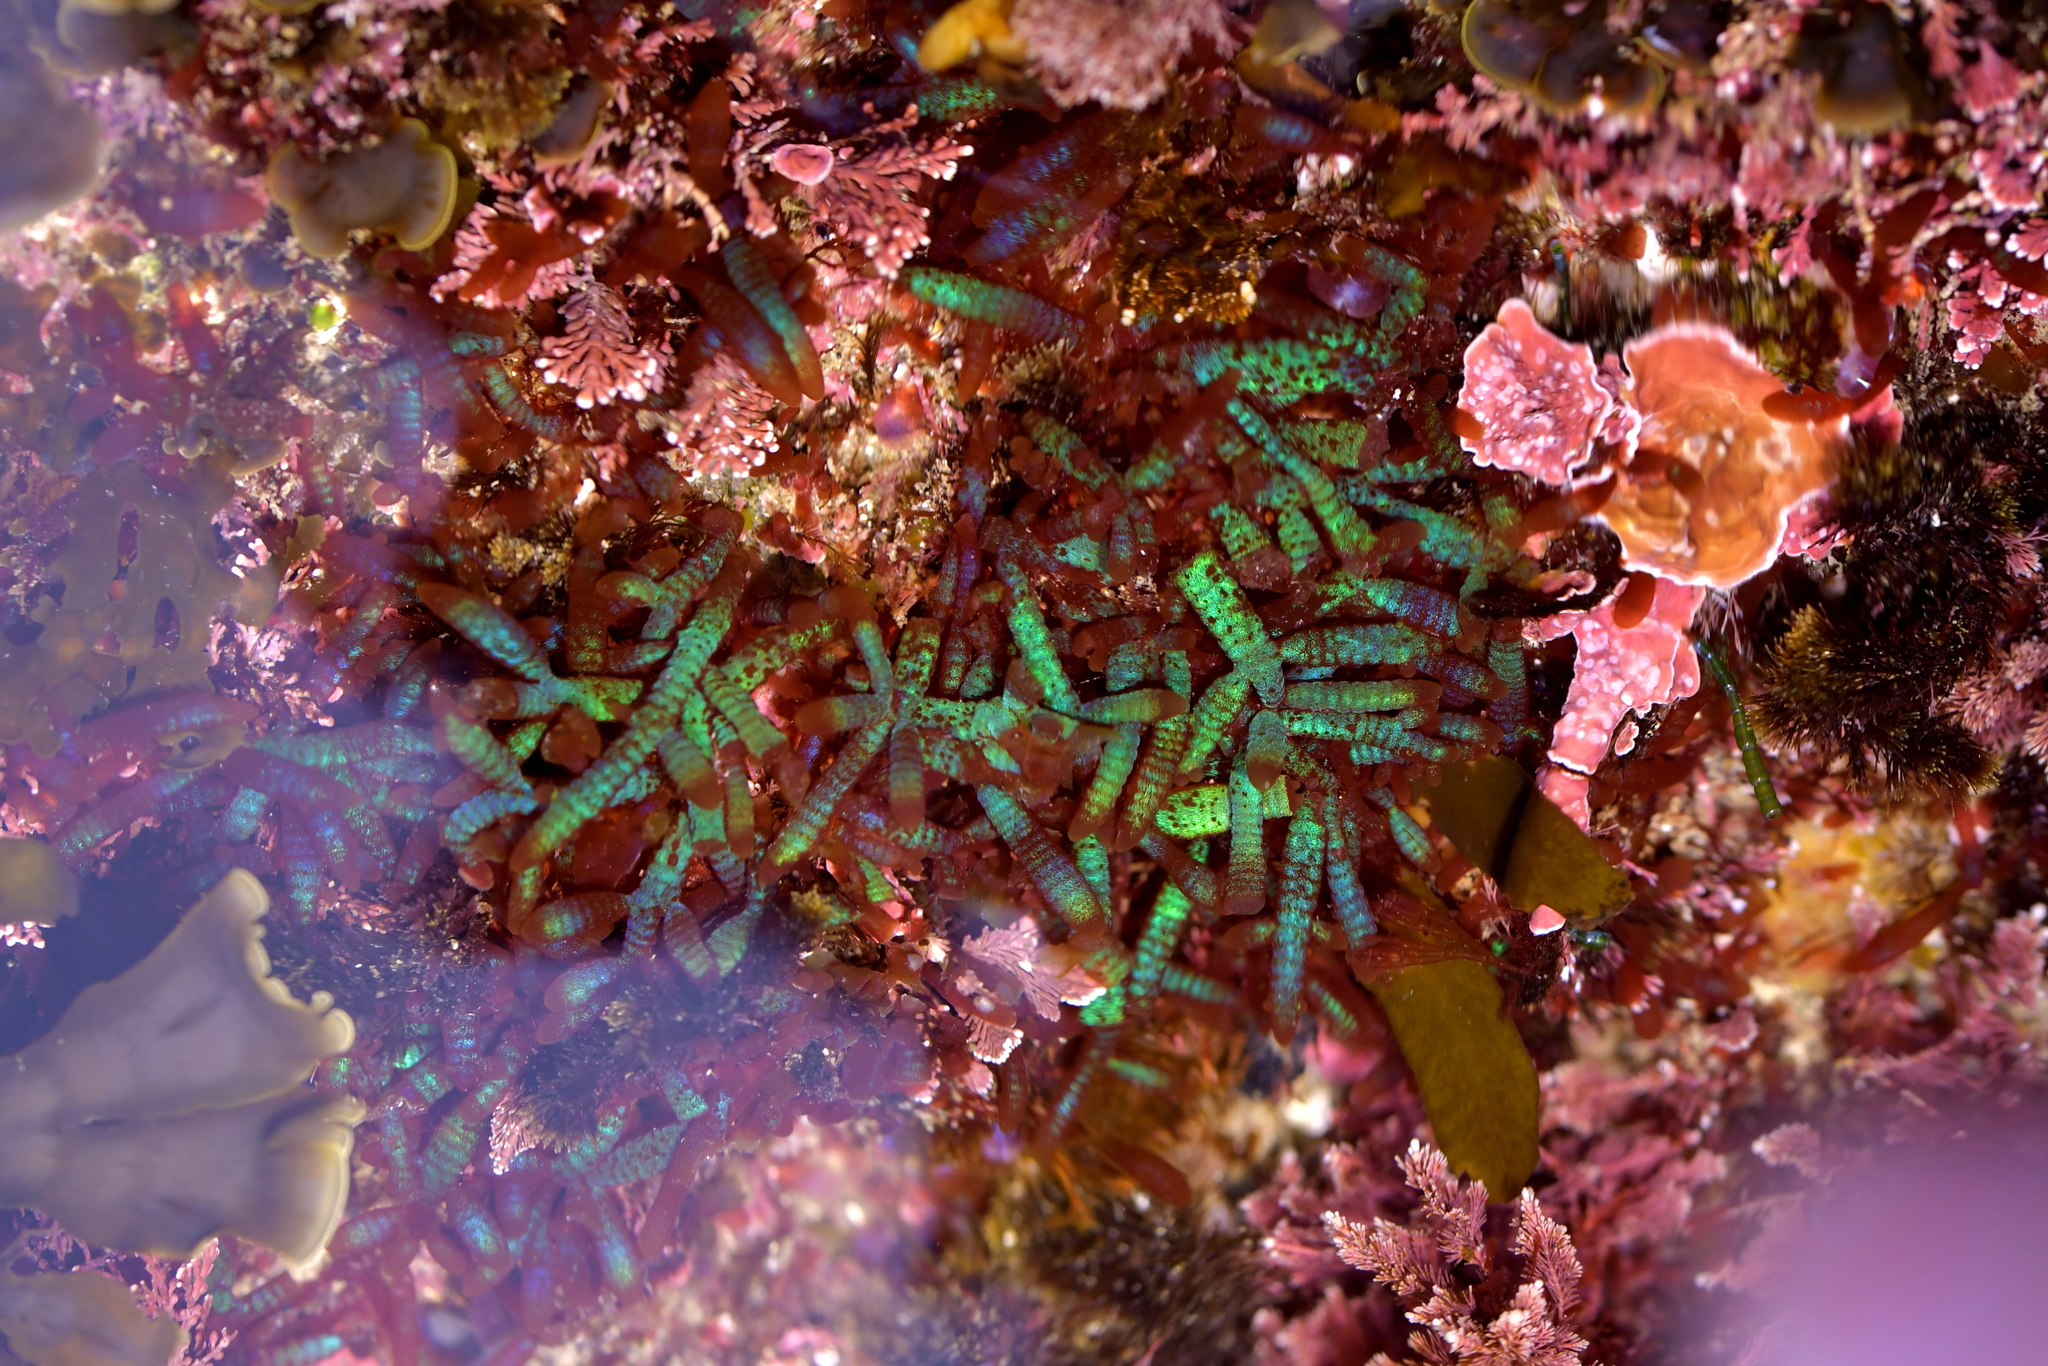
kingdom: Plantae
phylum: Rhodophyta
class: Florideophyceae
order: Rhodymeniales
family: Champiaceae
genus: Champia
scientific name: Champia laingii
